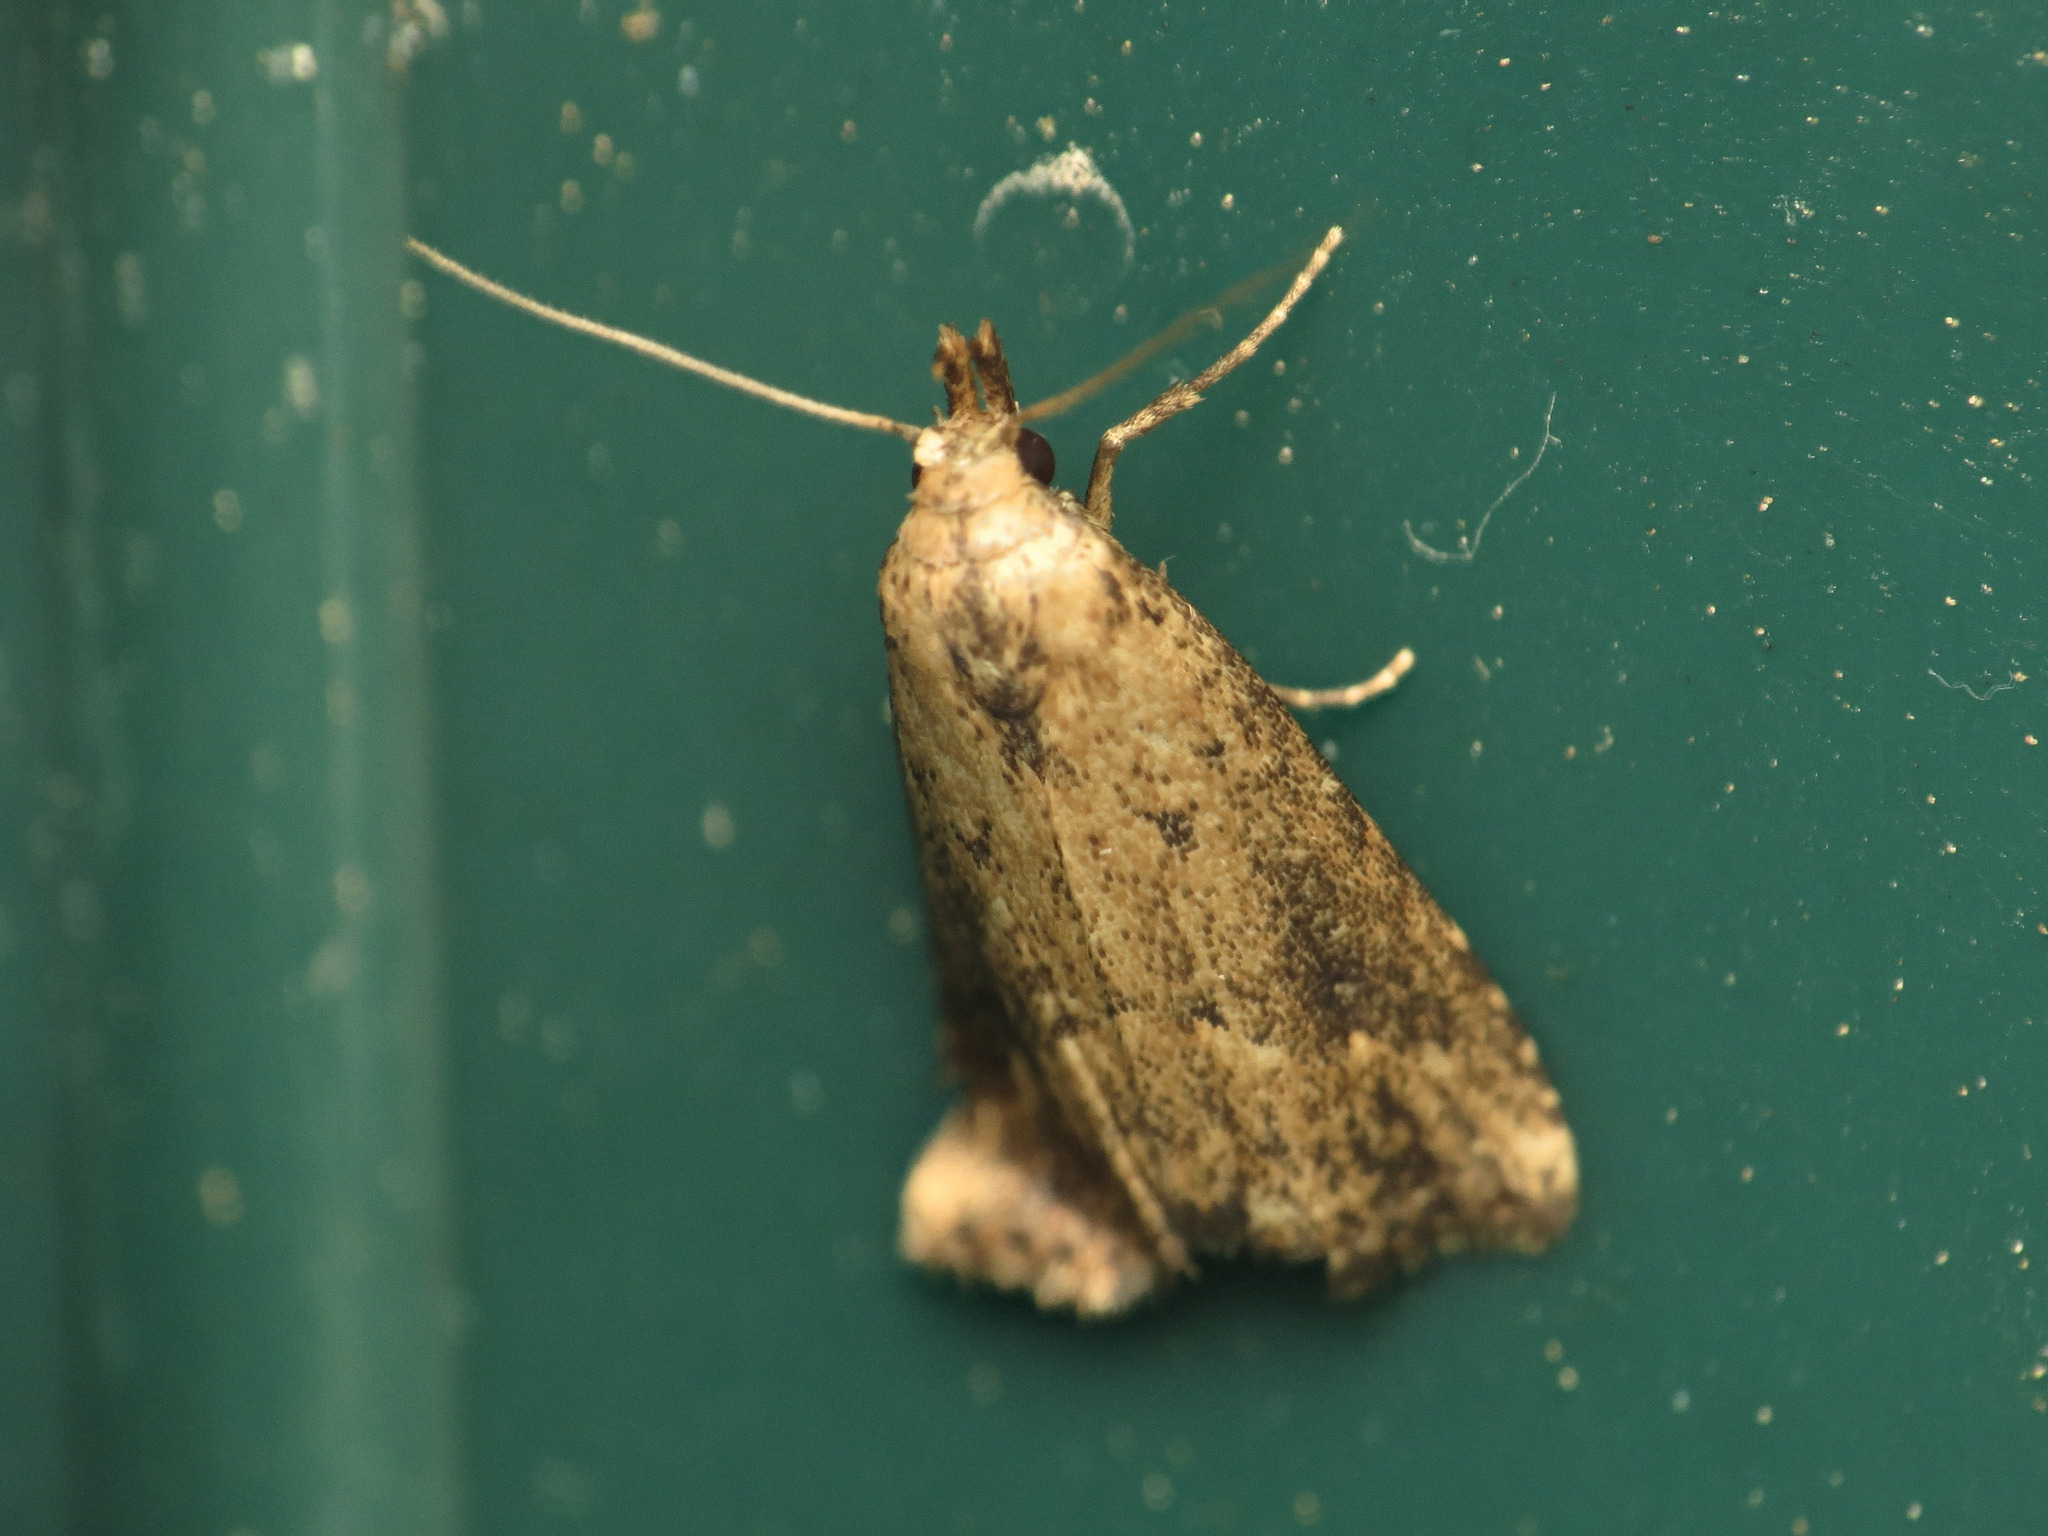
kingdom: Animalia
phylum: Arthropoda
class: Insecta
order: Lepidoptera
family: Erebidae
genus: Schrankia
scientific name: Schrankia
